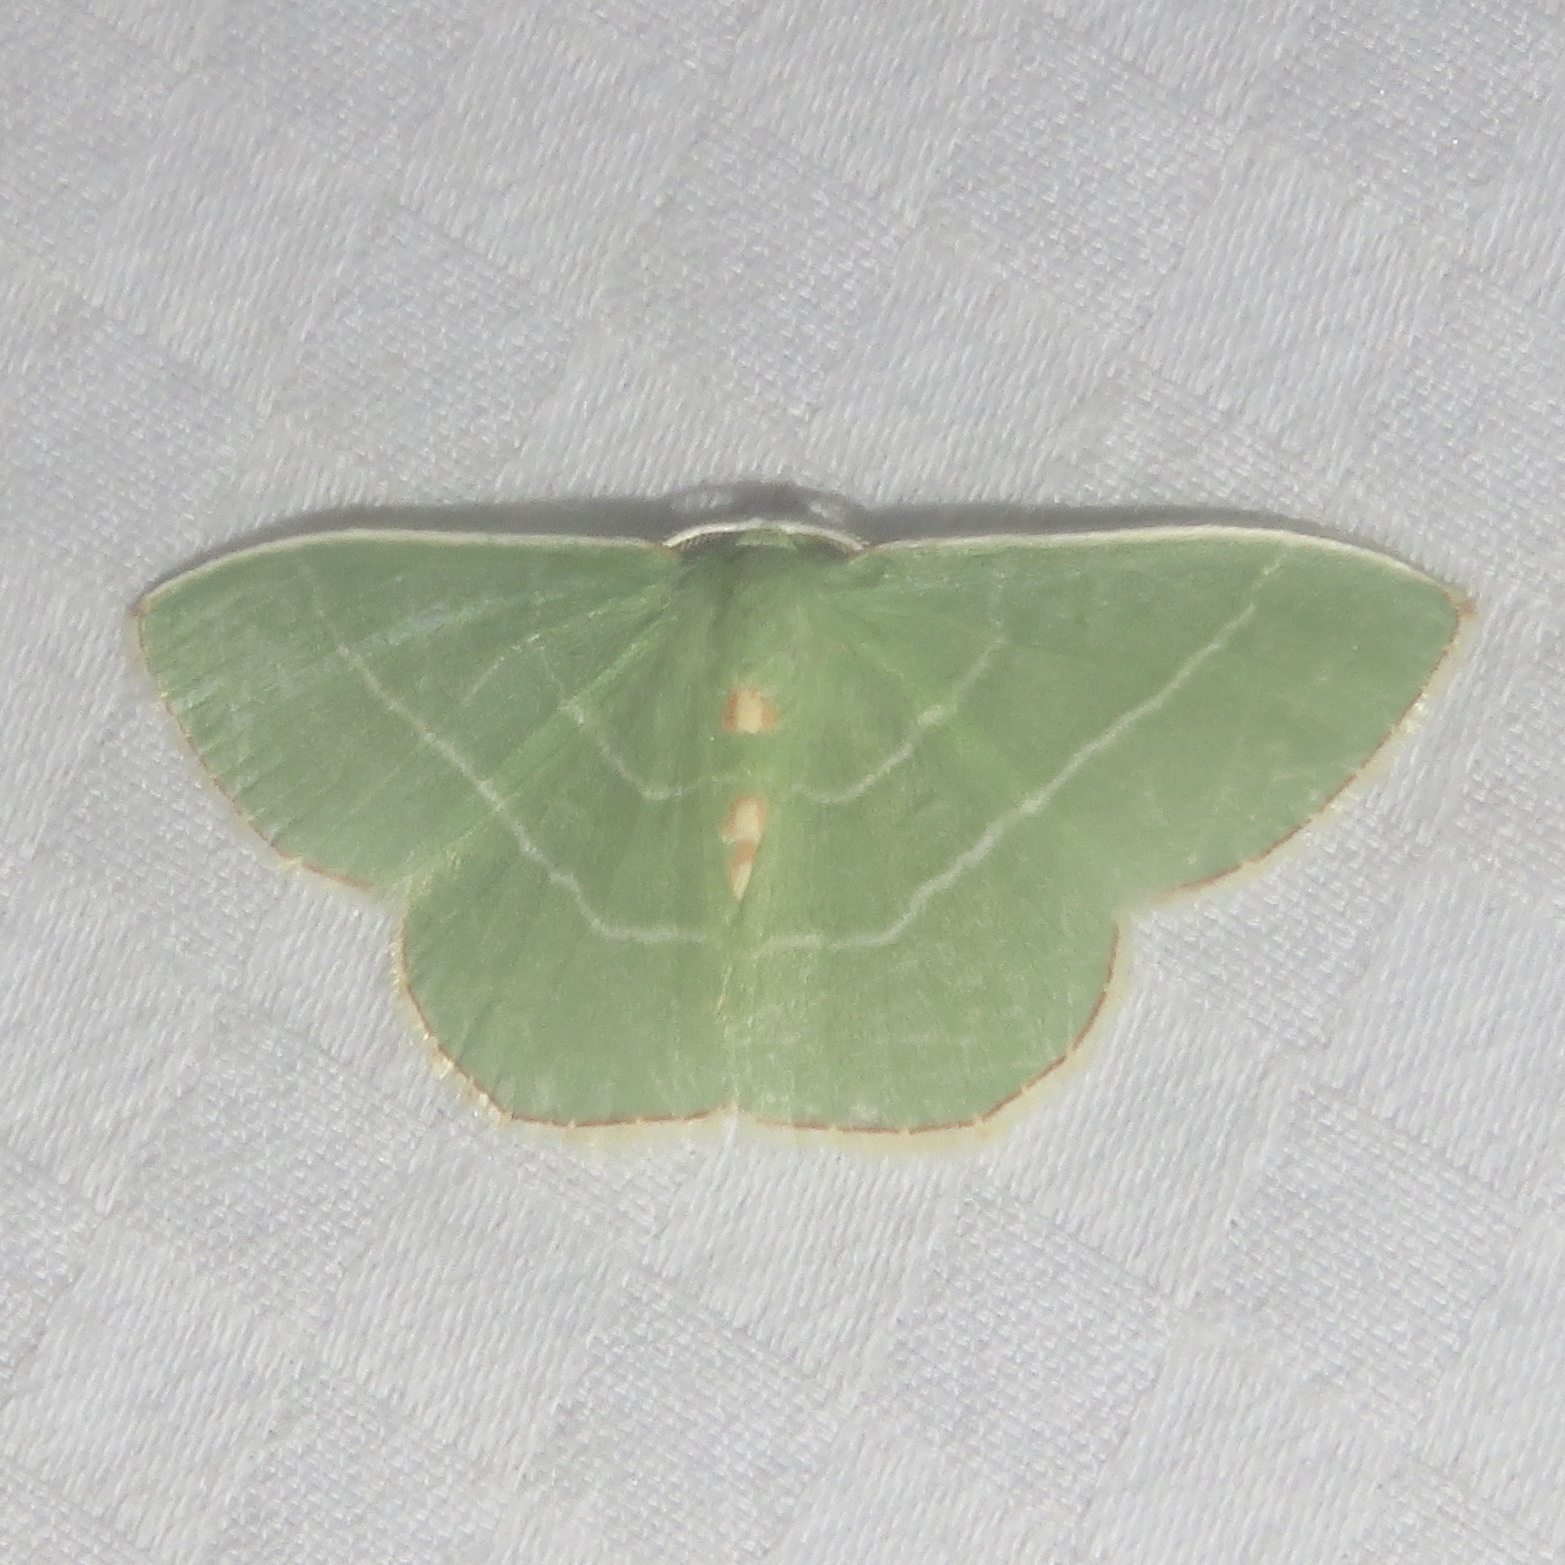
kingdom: Animalia
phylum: Arthropoda
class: Insecta
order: Lepidoptera
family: Geometridae
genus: Nemoria
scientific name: Nemoria bistriaria
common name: Red-fringed emerald
